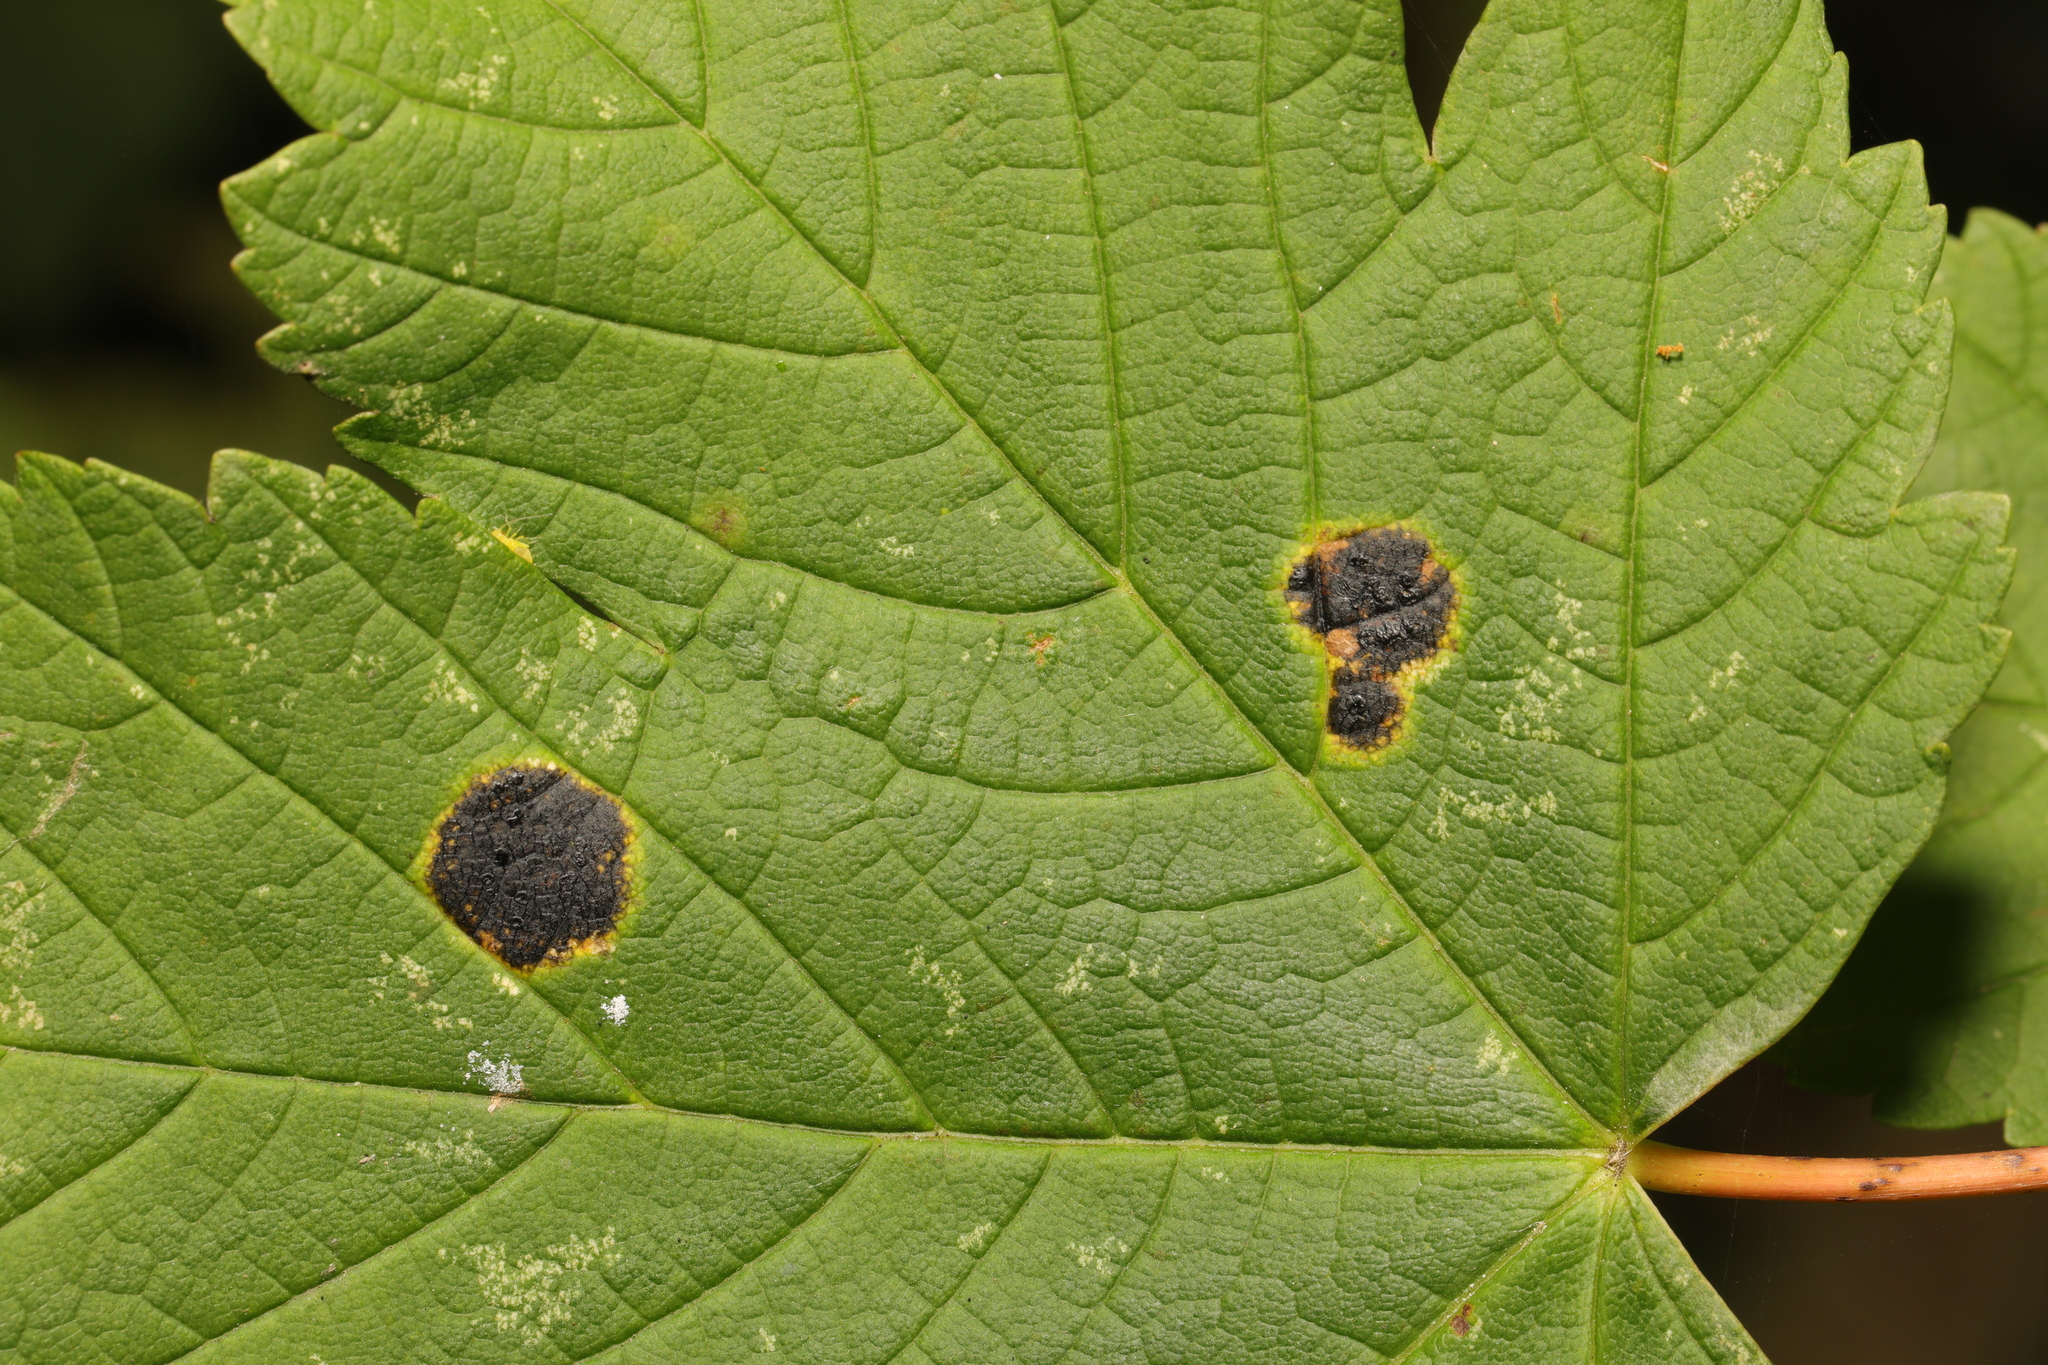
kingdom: Fungi
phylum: Ascomycota
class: Leotiomycetes
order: Rhytismatales
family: Rhytismataceae
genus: Rhytisma
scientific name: Rhytisma acerinum
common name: European tar spot
